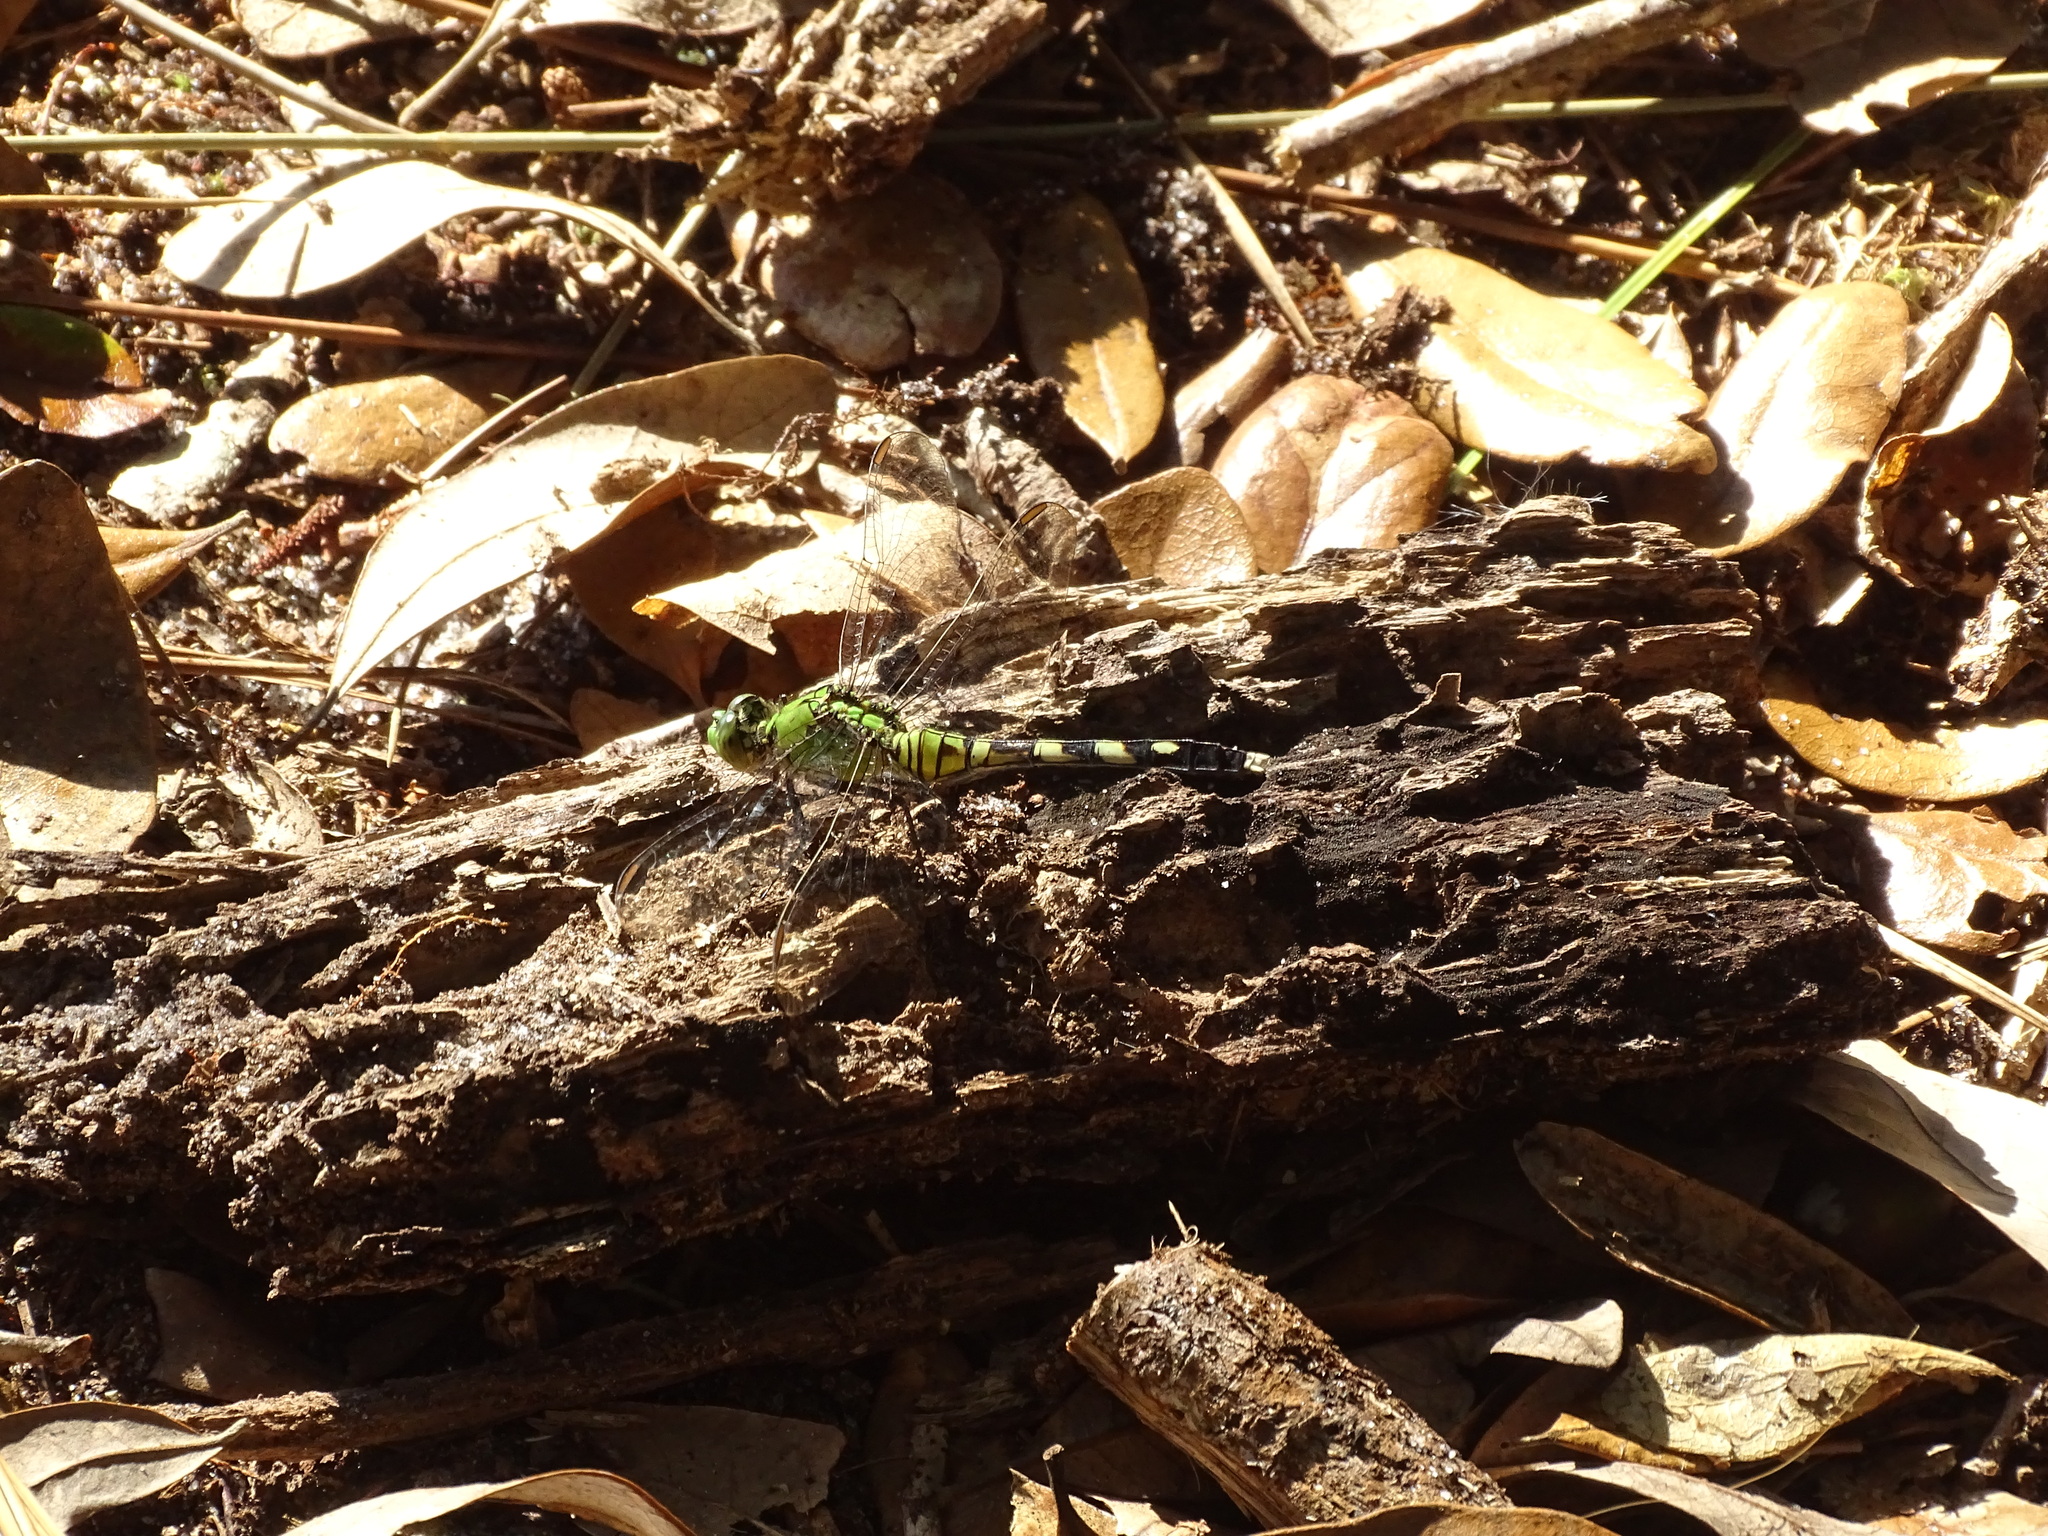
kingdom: Animalia
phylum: Arthropoda
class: Insecta
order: Odonata
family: Libellulidae
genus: Erythemis
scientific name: Erythemis simplicicollis
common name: Eastern pondhawk
